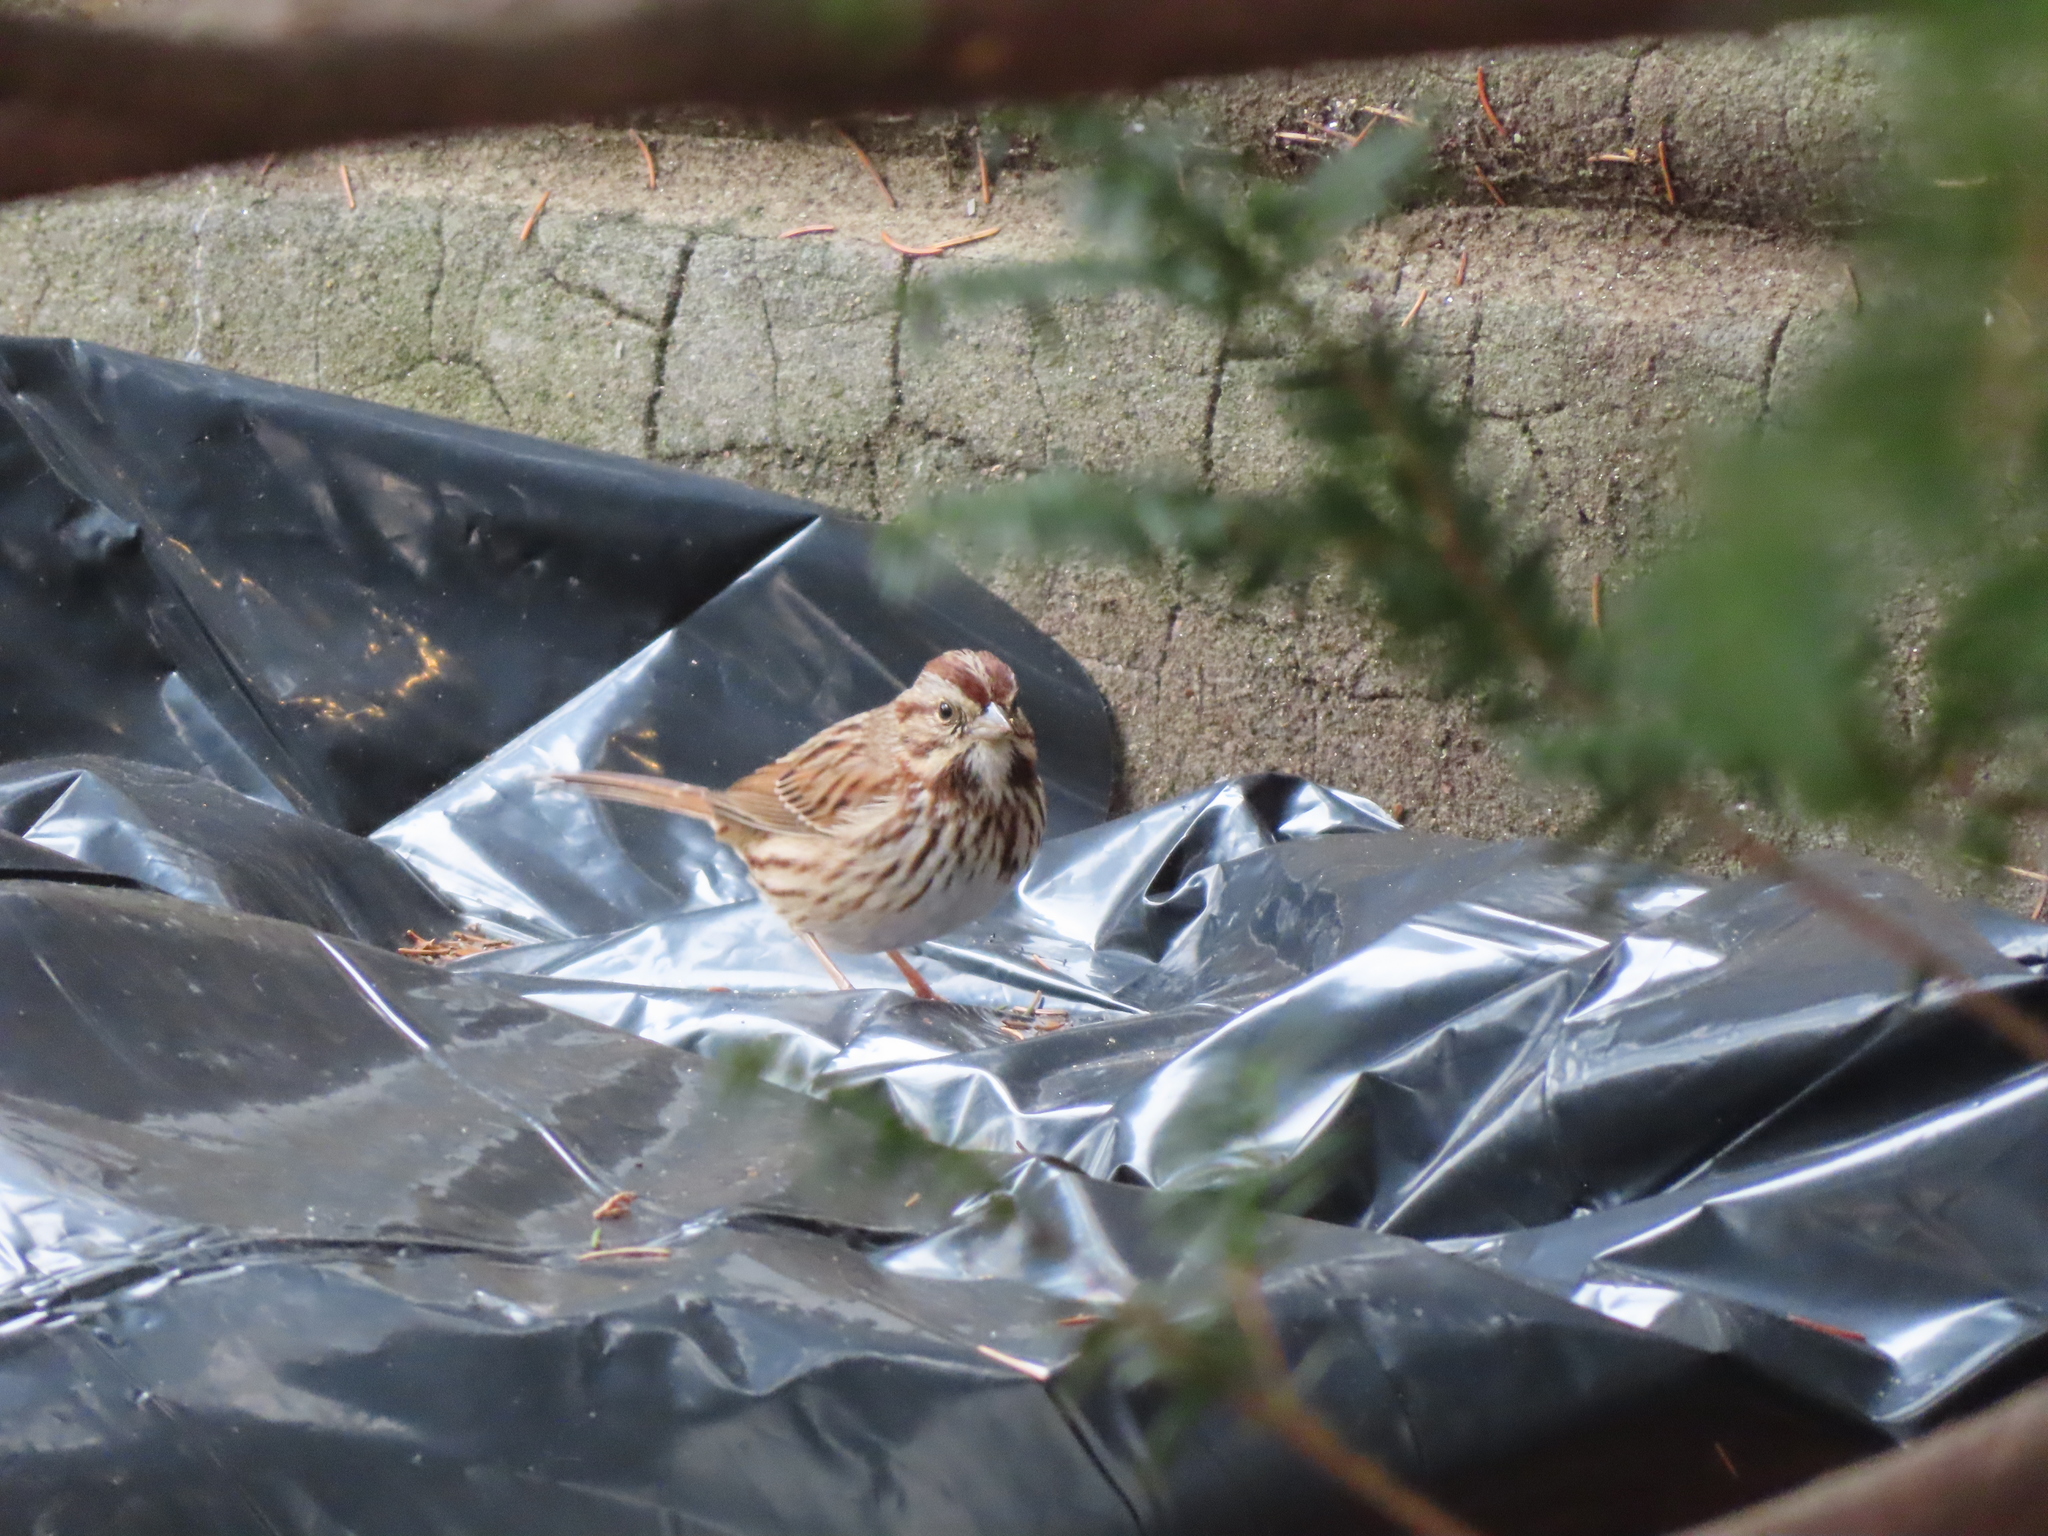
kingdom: Animalia
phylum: Chordata
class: Aves
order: Passeriformes
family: Passerellidae
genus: Melospiza
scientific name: Melospiza melodia
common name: Song sparrow
